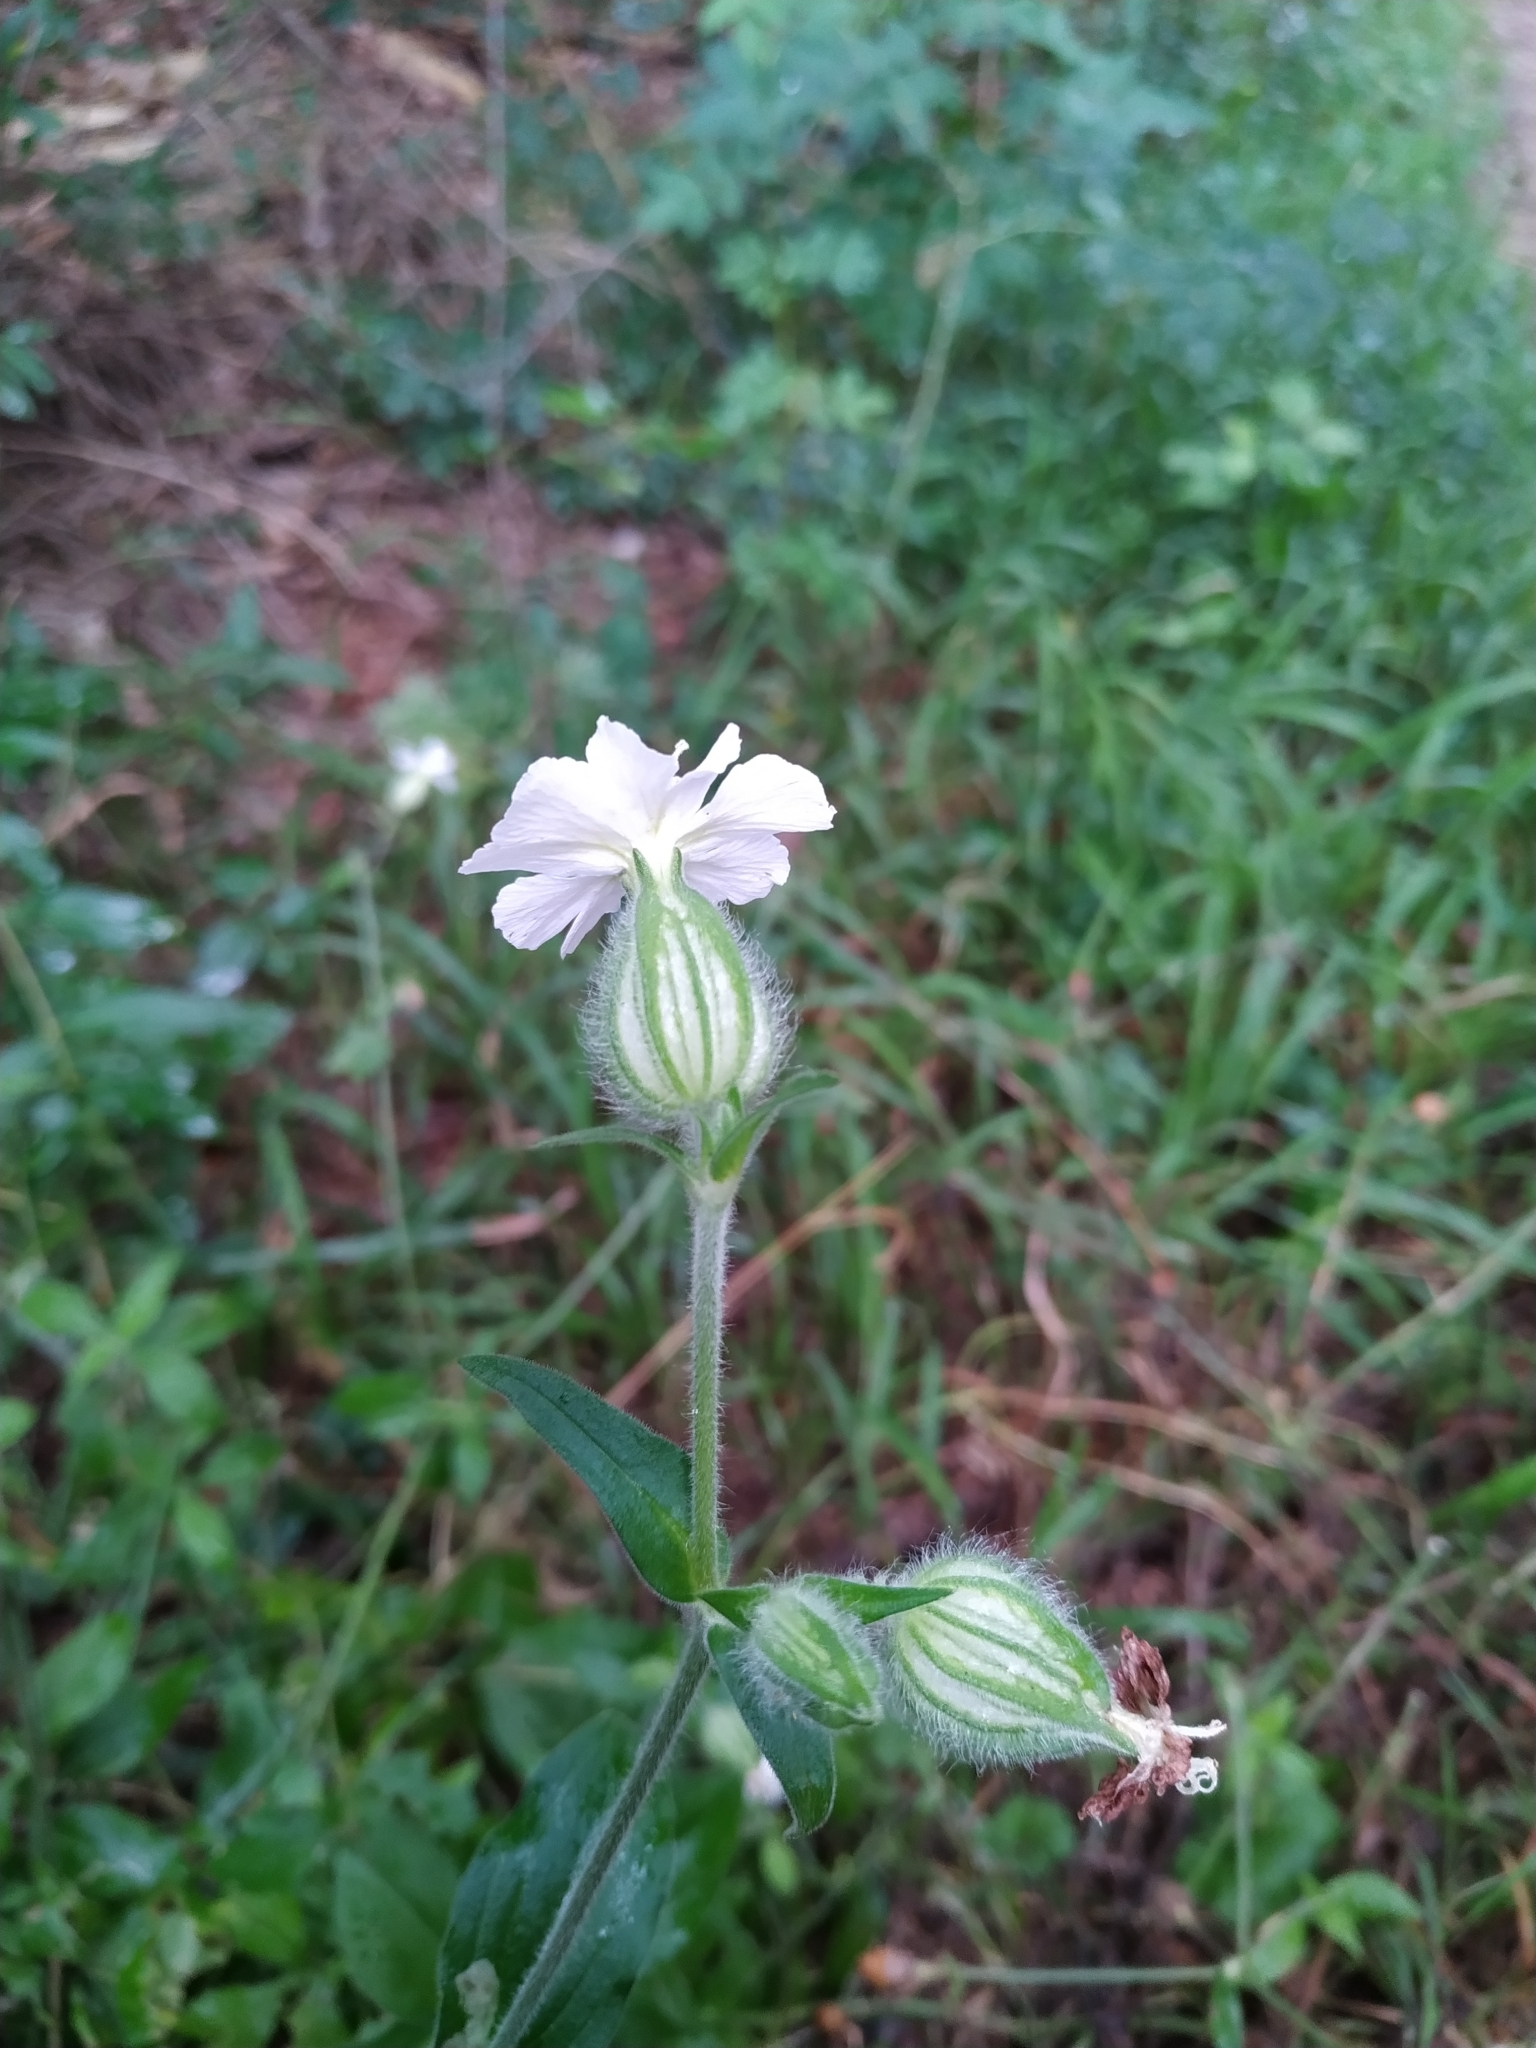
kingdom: Plantae
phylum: Tracheophyta
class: Magnoliopsida
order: Caryophyllales
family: Caryophyllaceae
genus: Silene
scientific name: Silene latifolia
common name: White campion
